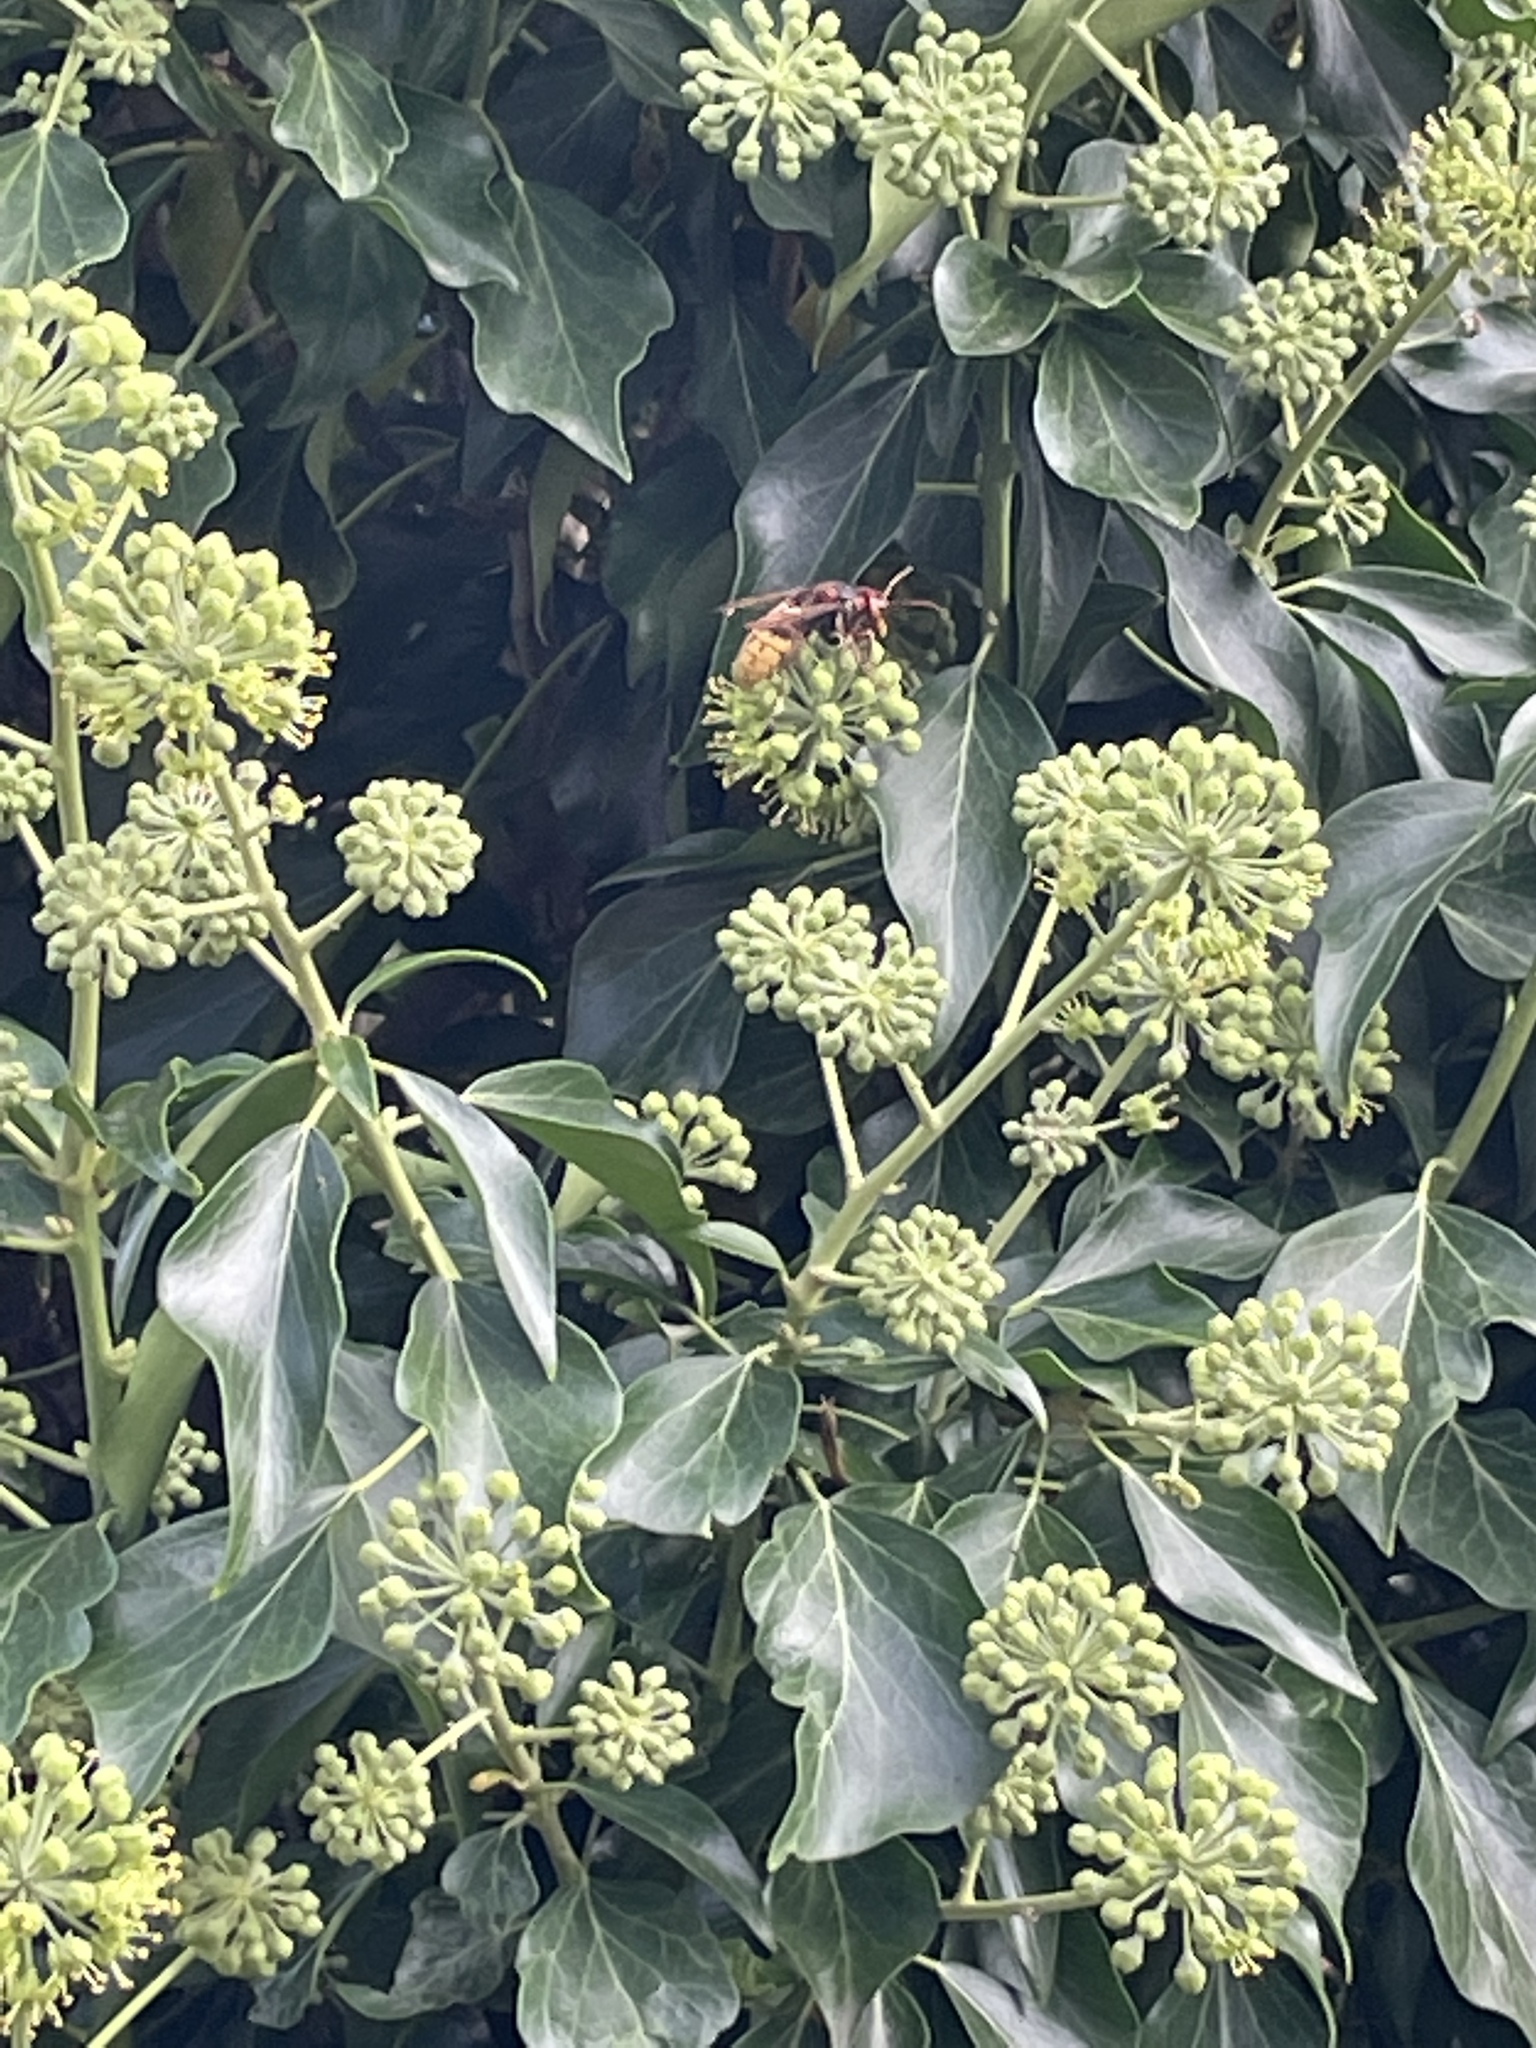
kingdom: Animalia
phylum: Arthropoda
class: Insecta
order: Hymenoptera
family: Vespidae
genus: Vespa
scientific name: Vespa crabro
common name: Hornet
